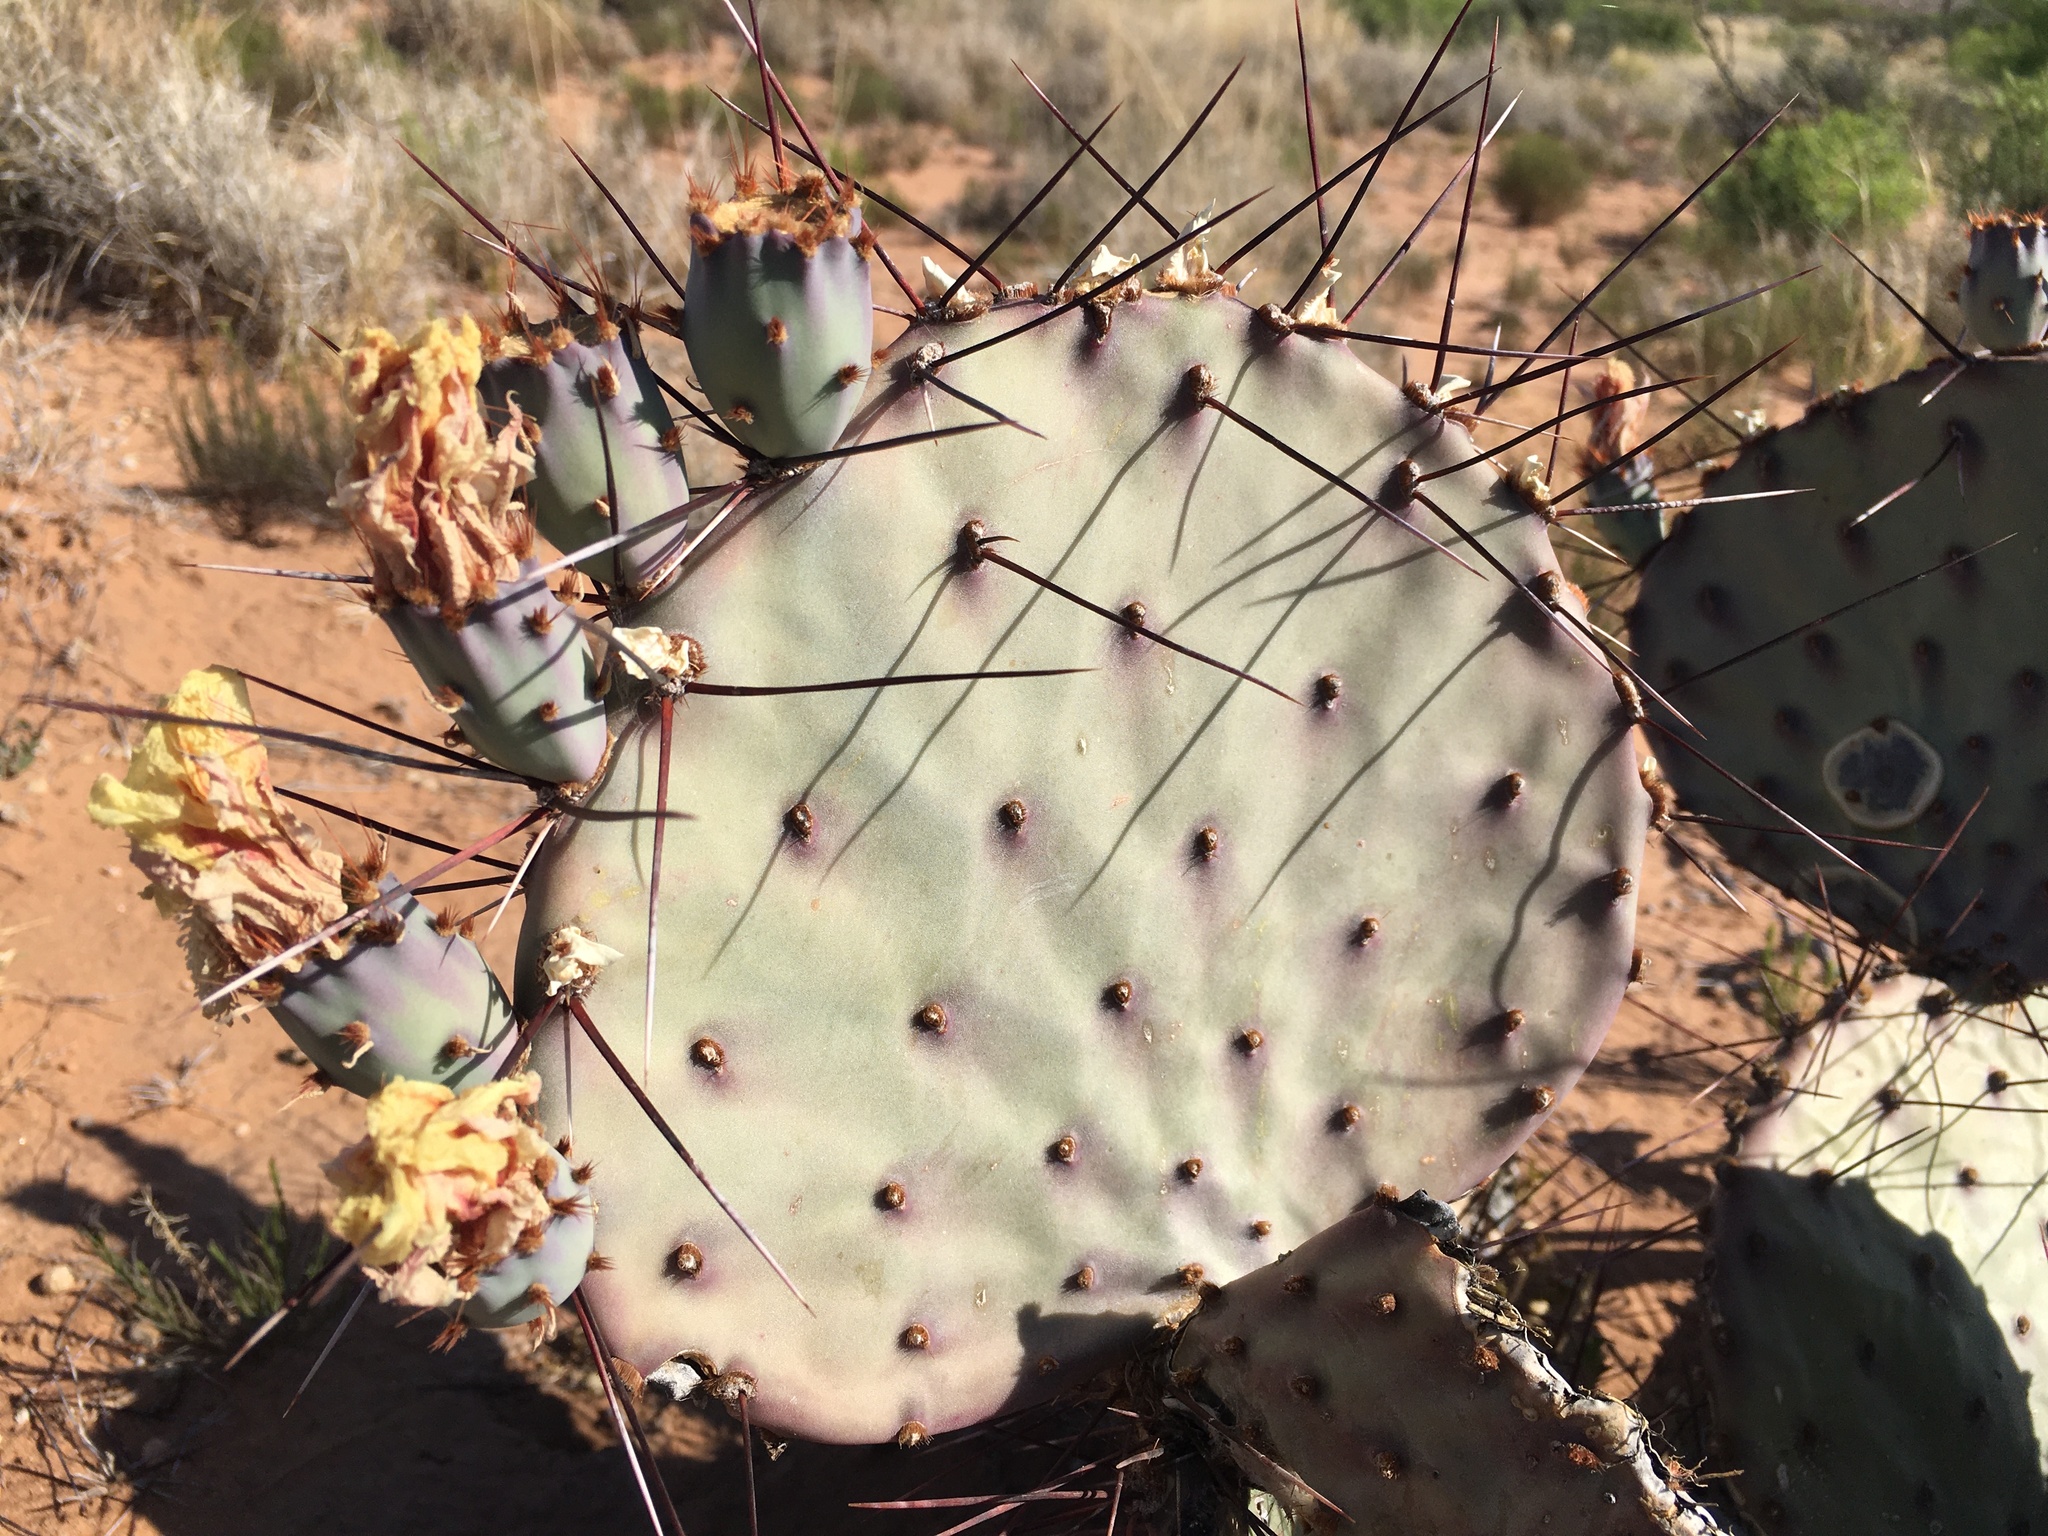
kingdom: Plantae
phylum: Tracheophyta
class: Magnoliopsida
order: Caryophyllales
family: Cactaceae
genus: Opuntia
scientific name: Opuntia macrocentra
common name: Purple prickly-pear
